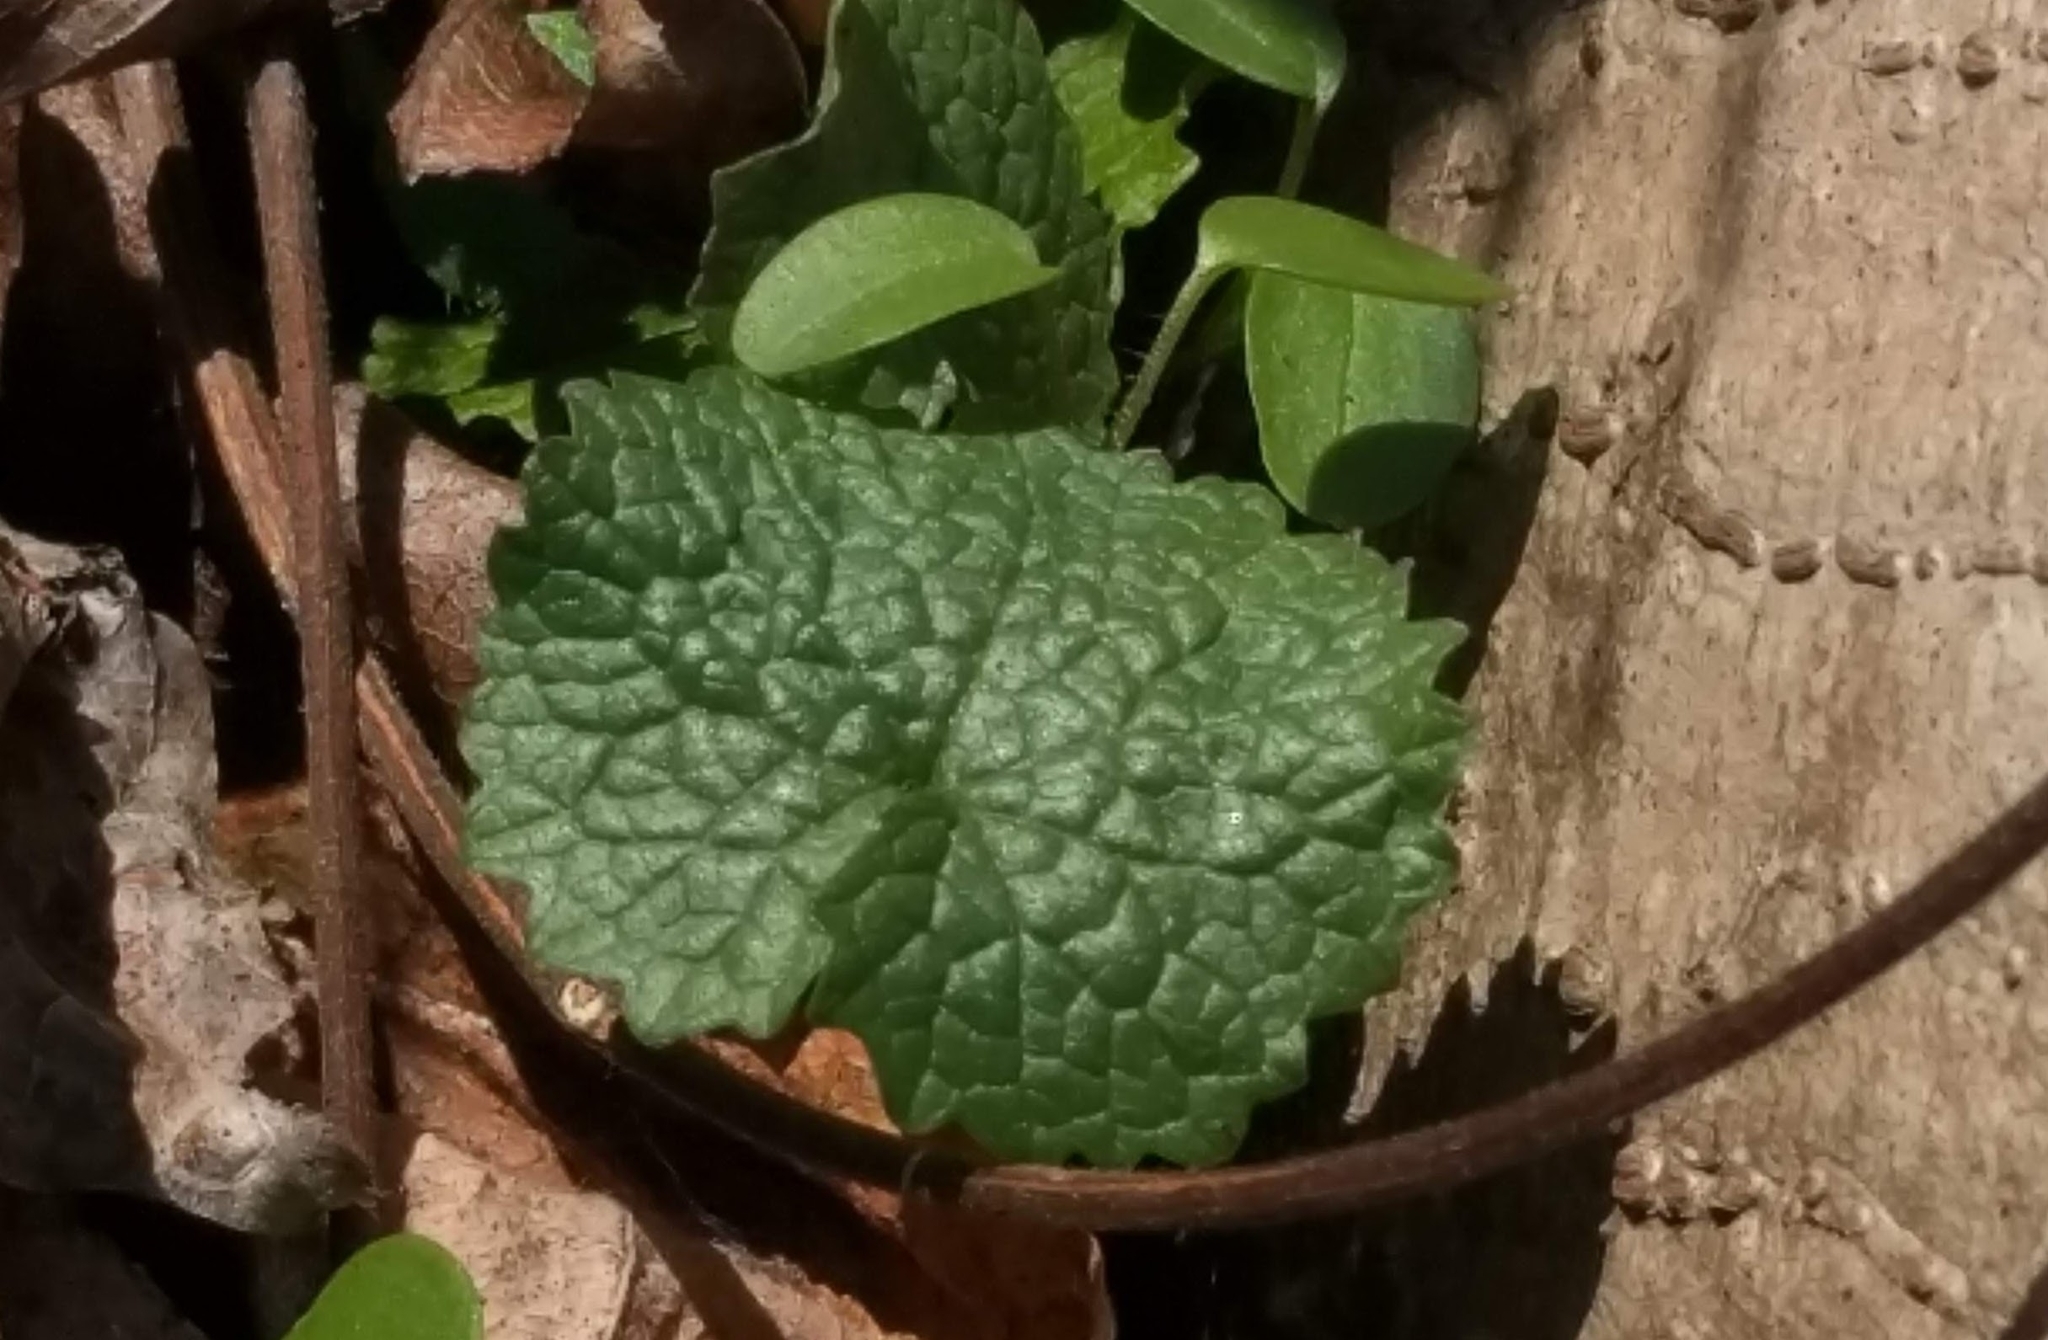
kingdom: Plantae
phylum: Tracheophyta
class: Magnoliopsida
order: Brassicales
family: Brassicaceae
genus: Alliaria
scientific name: Alliaria petiolata
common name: Garlic mustard
